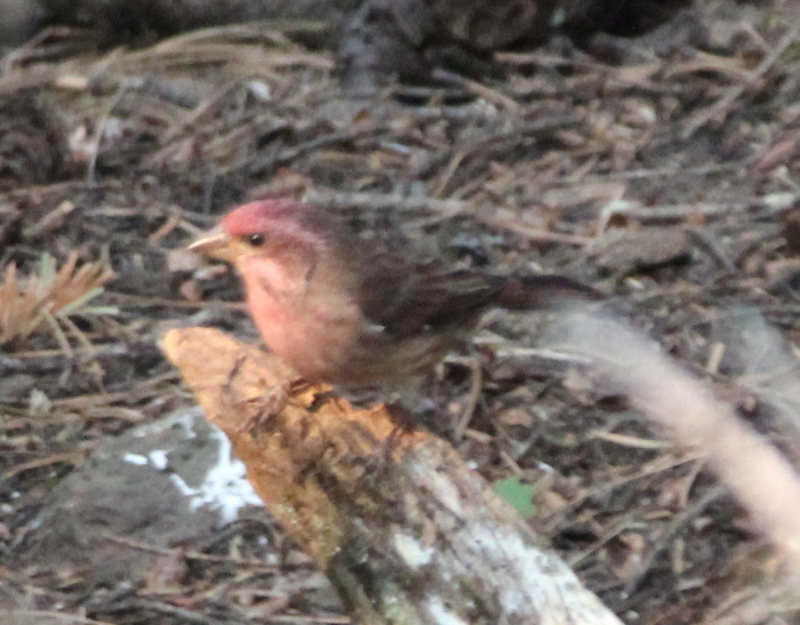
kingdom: Animalia
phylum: Chordata
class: Aves
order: Passeriformes
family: Fringillidae
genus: Haemorhous
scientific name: Haemorhous purpureus
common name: Purple finch
